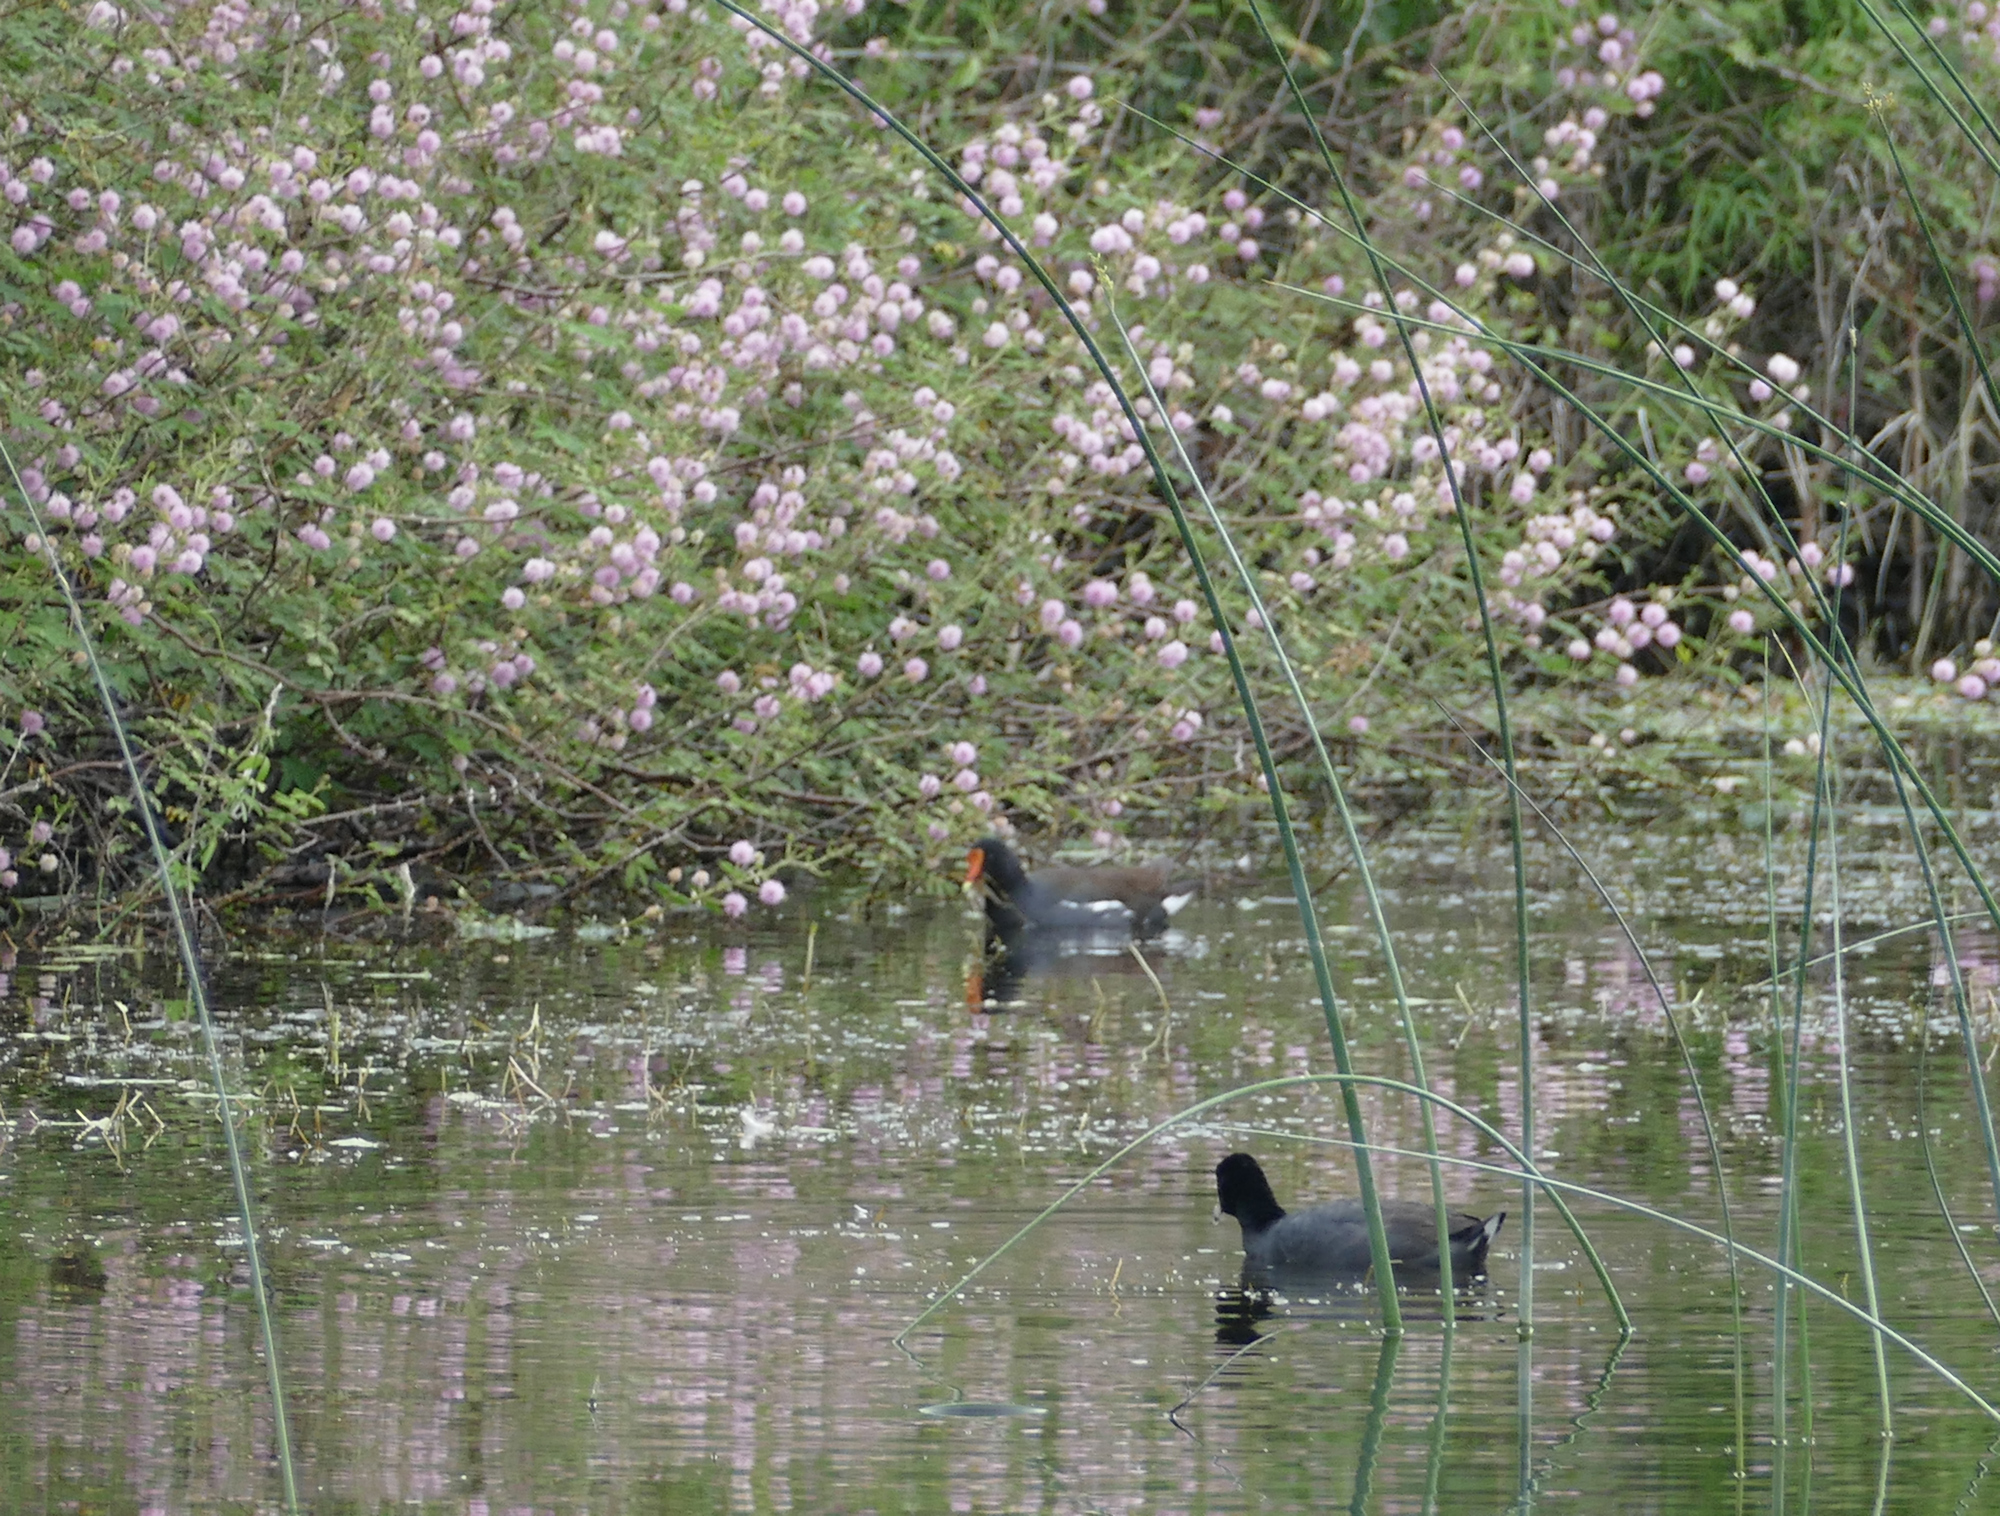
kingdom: Plantae
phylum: Tracheophyta
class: Magnoliopsida
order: Fabales
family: Fabaceae
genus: Mimosa
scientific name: Mimosa pigra
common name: Black mimosa
